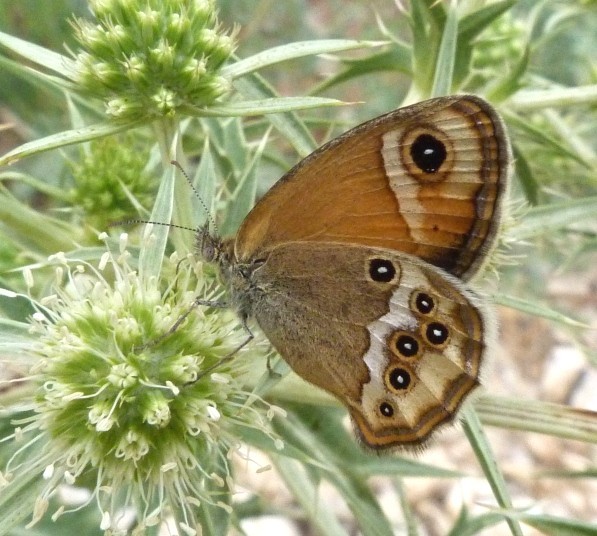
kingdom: Animalia
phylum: Arthropoda
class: Insecta
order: Lepidoptera
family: Nymphalidae
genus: Coenonympha
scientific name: Coenonympha dorus
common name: Dusky heath
